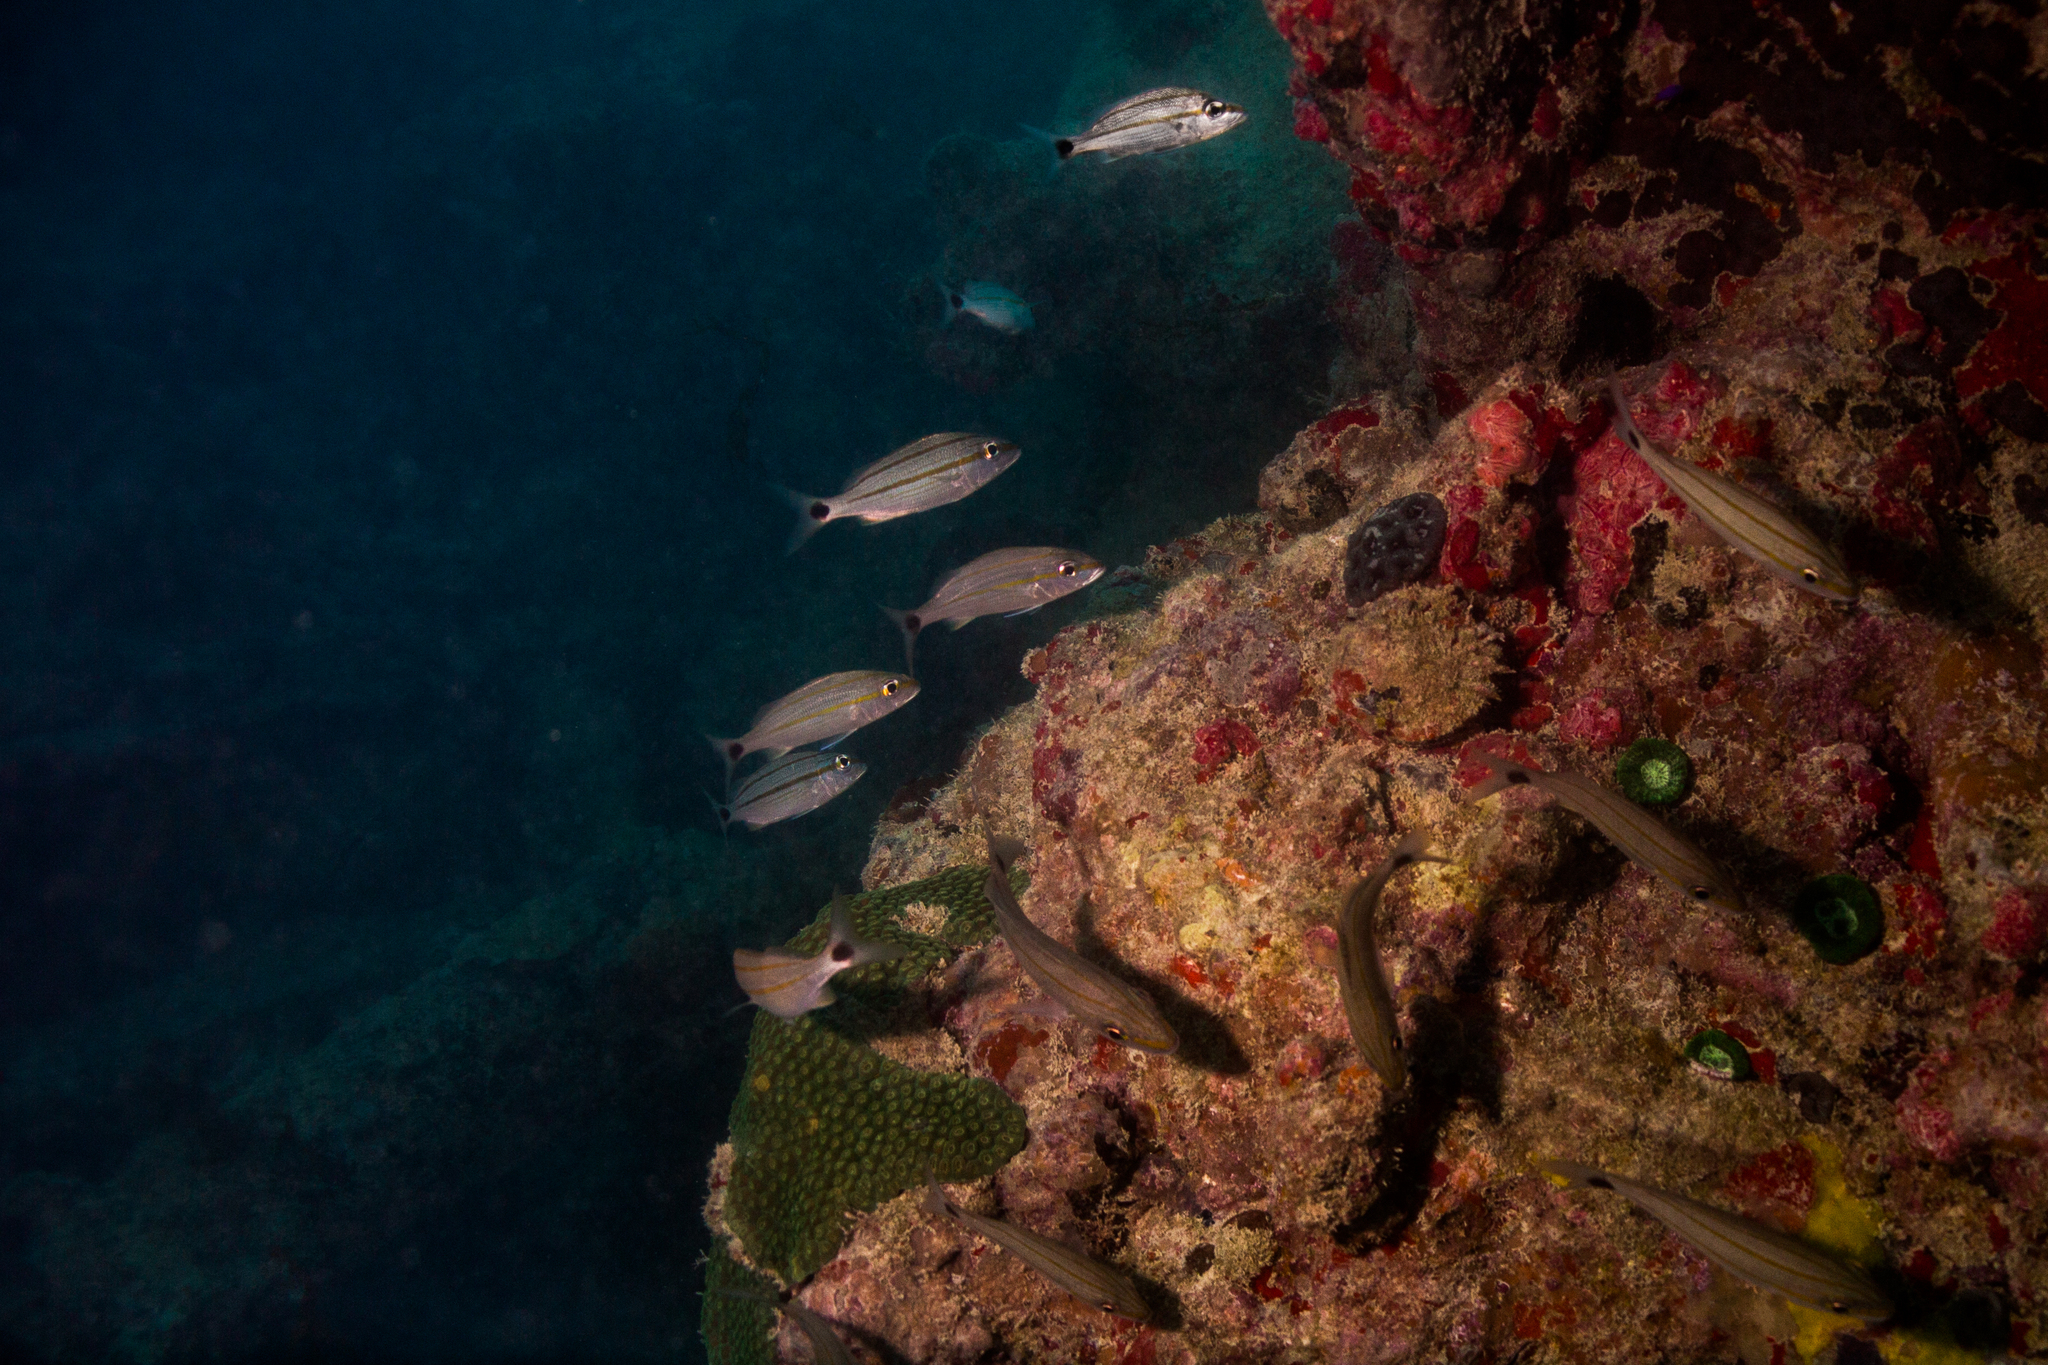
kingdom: Animalia
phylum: Chordata
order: Perciformes
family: Haemulidae
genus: Haemulon
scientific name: Haemulon aurolineatum
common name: Tomtate
